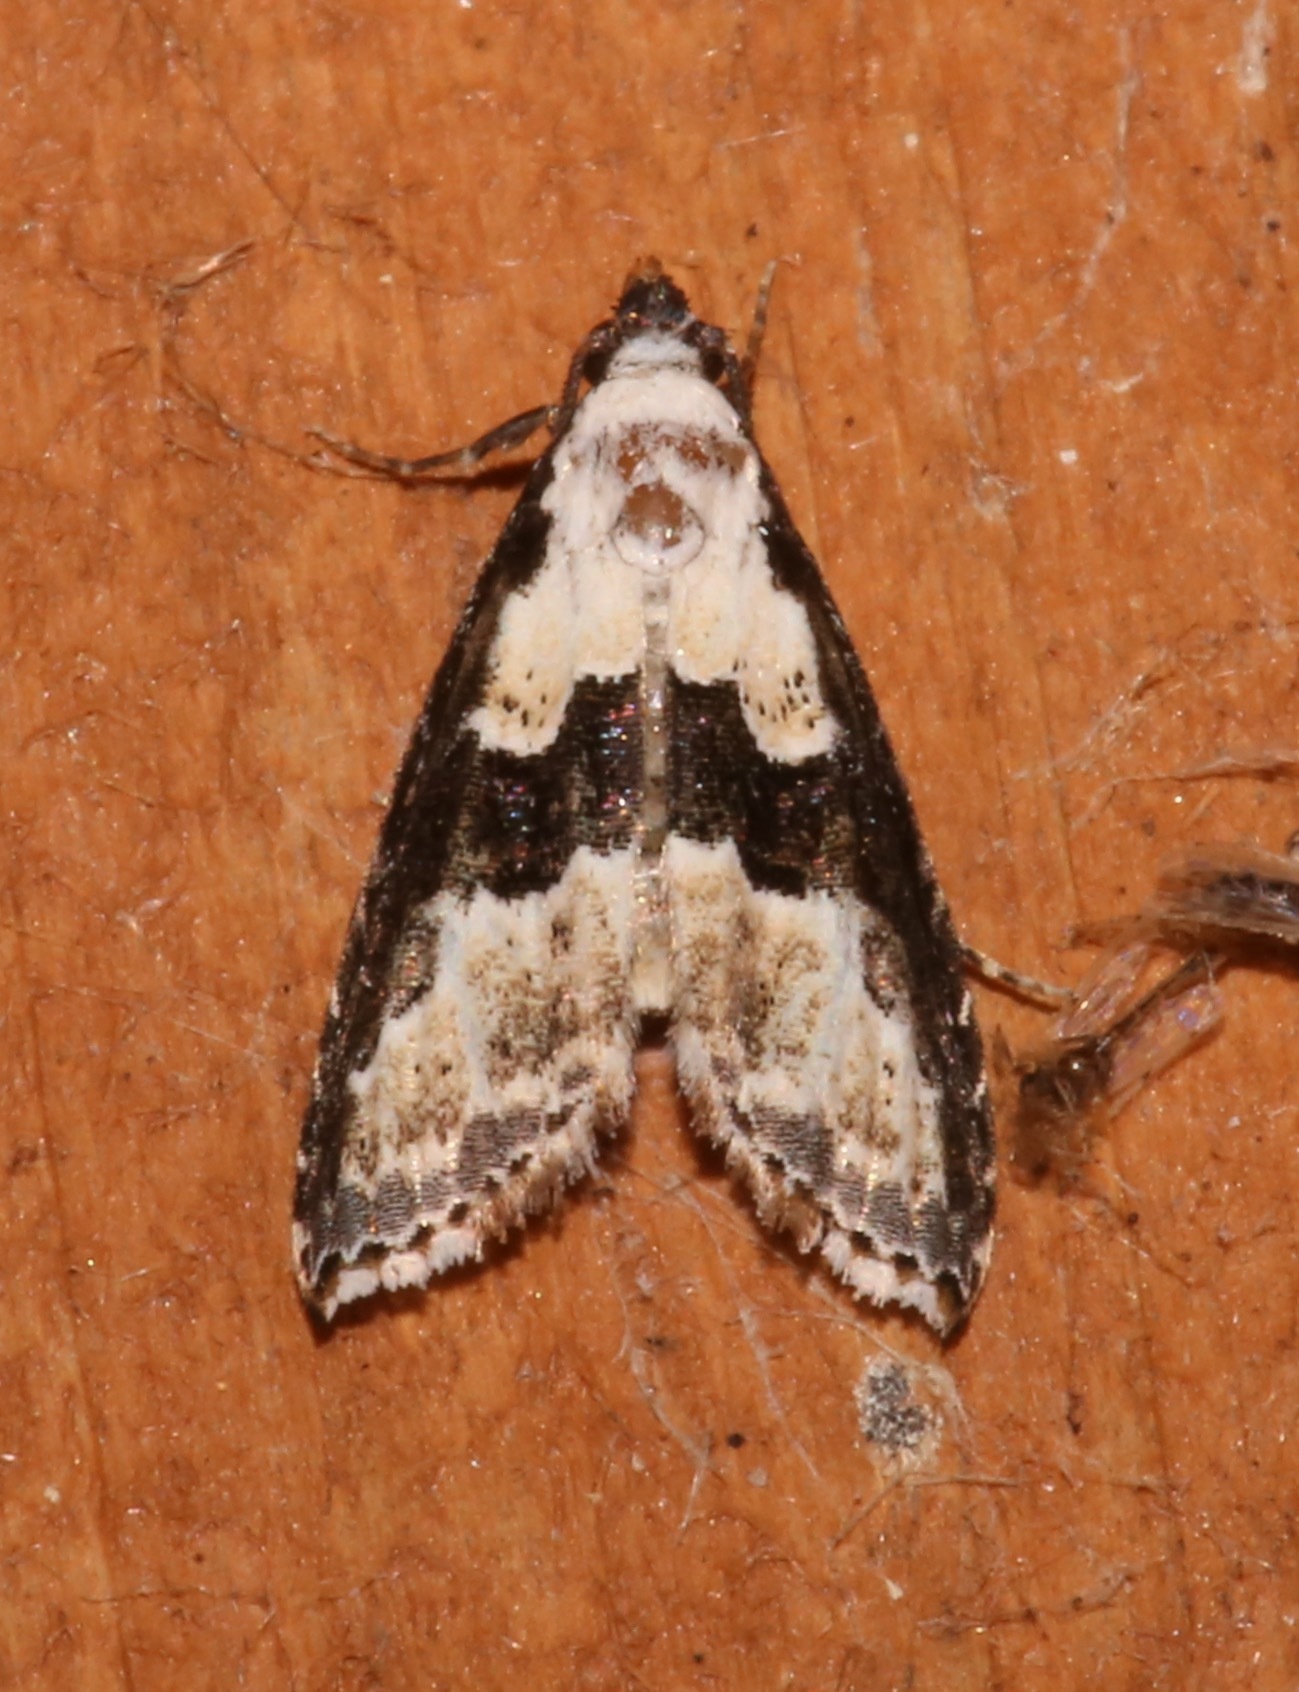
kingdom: Animalia
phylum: Arthropoda
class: Insecta
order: Lepidoptera
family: Noctuidae
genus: Nigetia
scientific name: Nigetia formosalis
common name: Thin-winged owlet
